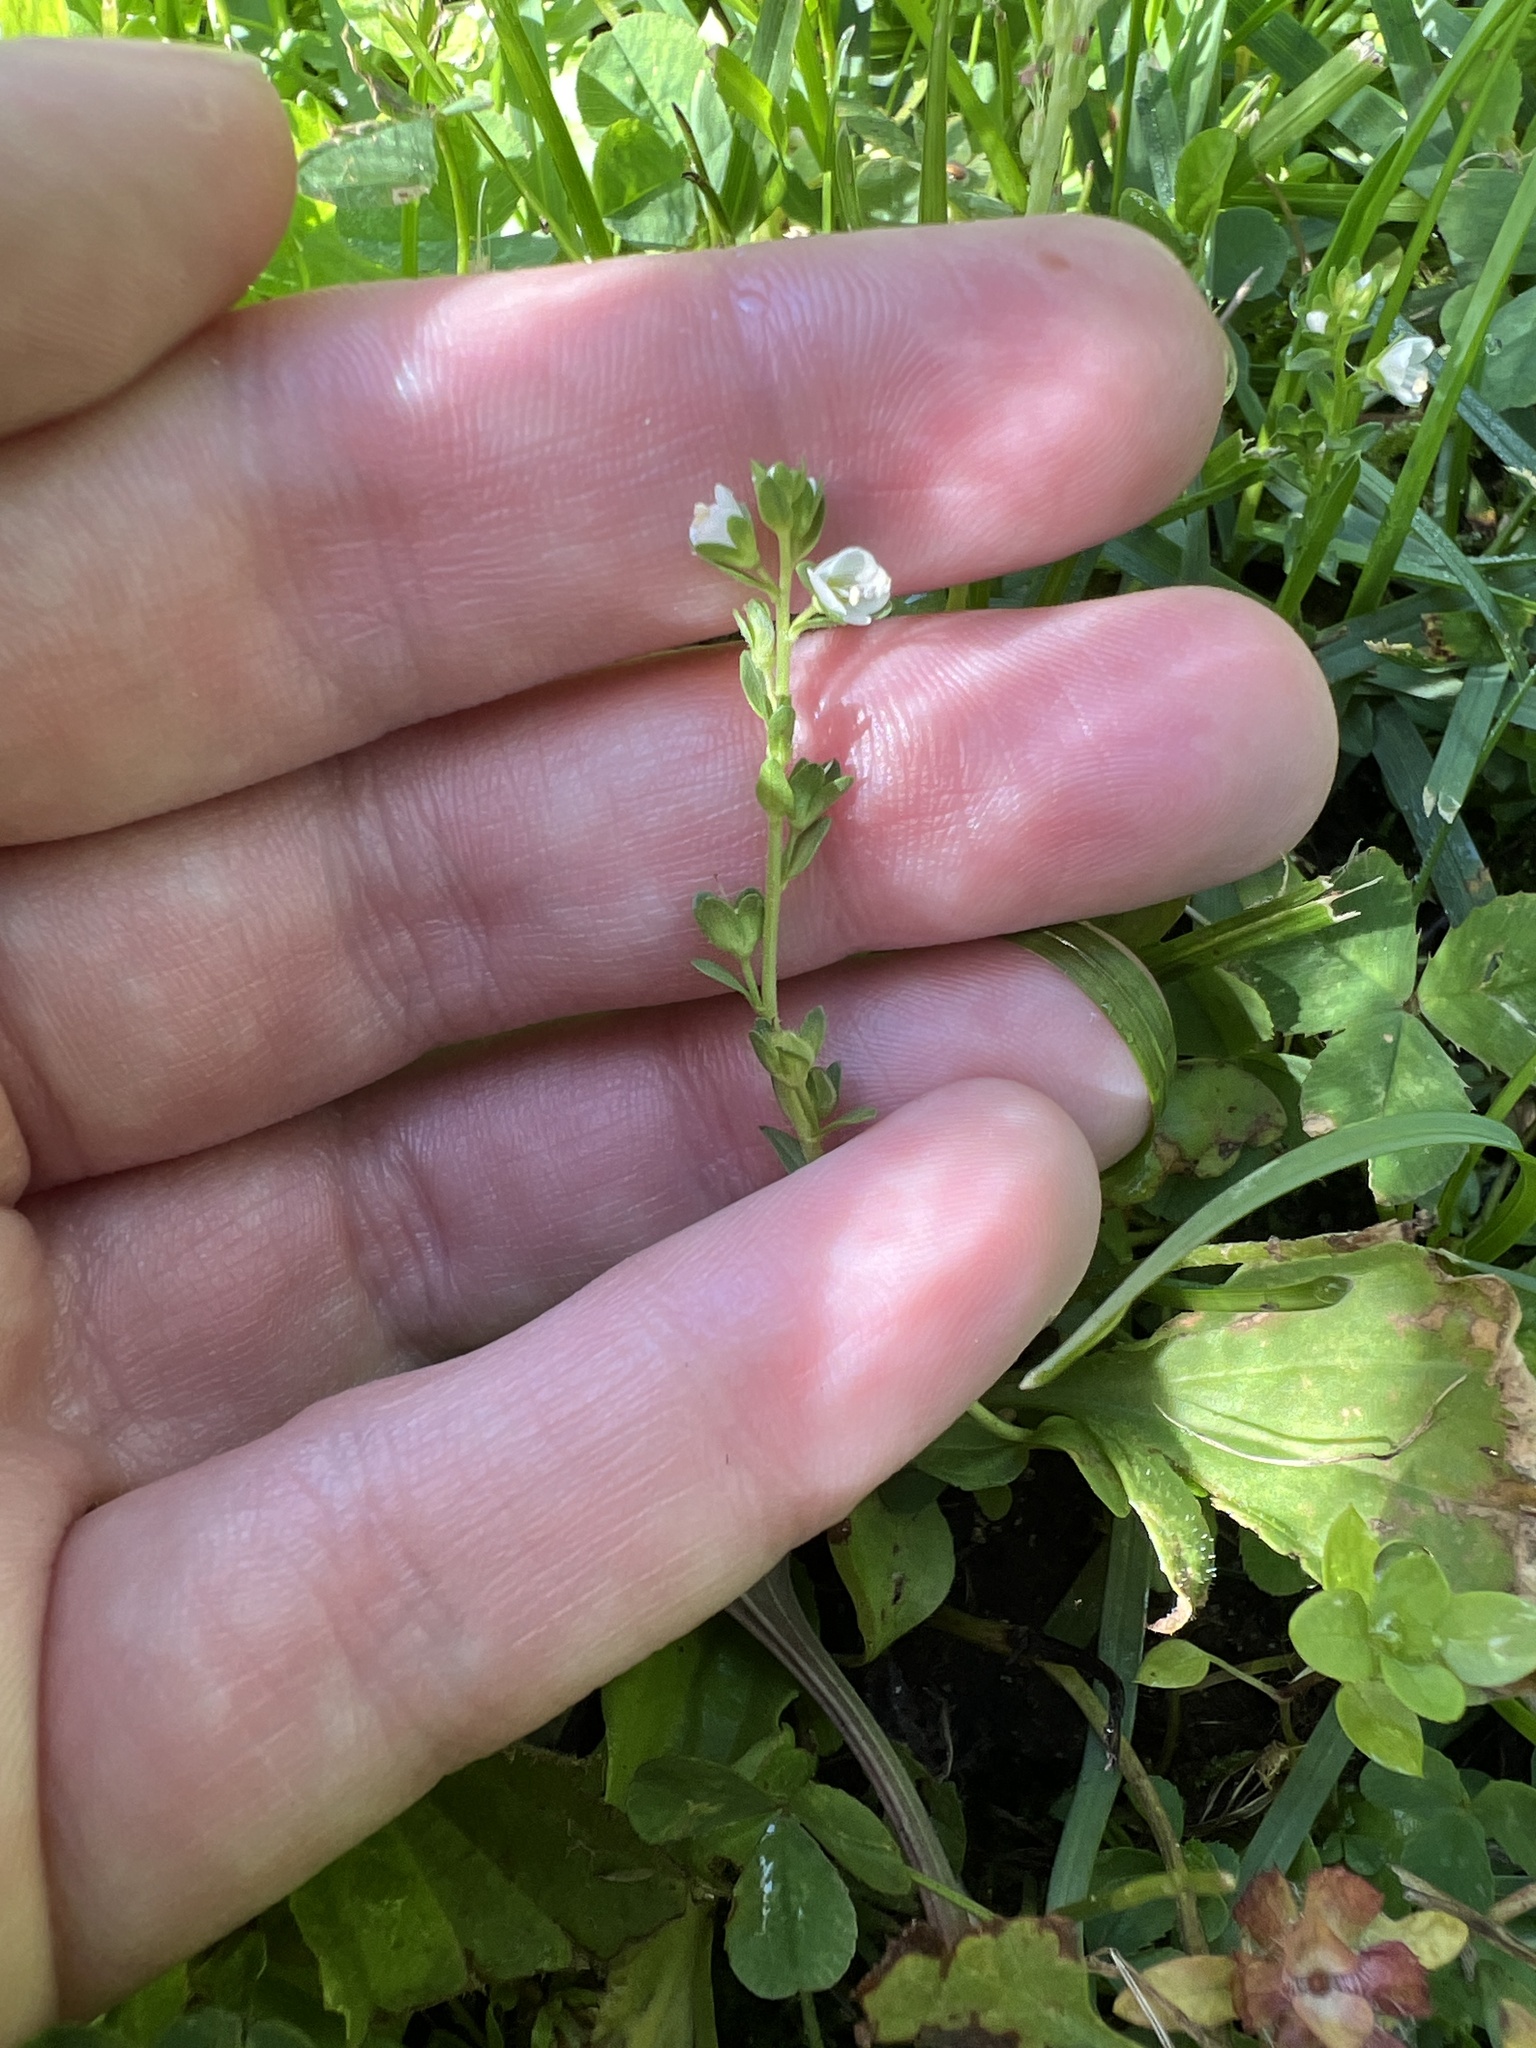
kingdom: Plantae
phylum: Tracheophyta
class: Magnoliopsida
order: Lamiales
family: Plantaginaceae
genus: Veronica
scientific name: Veronica serpyllifolia
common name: Thyme-leaved speedwell
